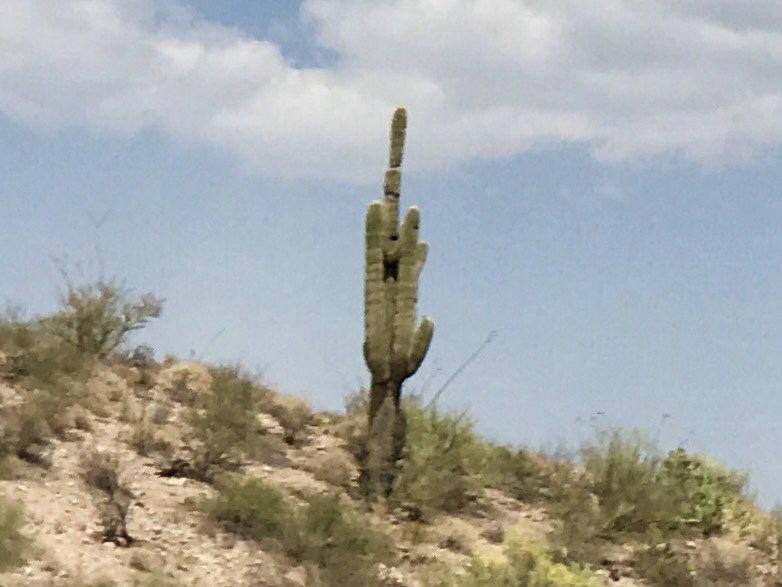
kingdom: Plantae
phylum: Tracheophyta
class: Magnoliopsida
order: Caryophyllales
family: Cactaceae
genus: Carnegiea
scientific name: Carnegiea gigantea
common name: Saguaro
